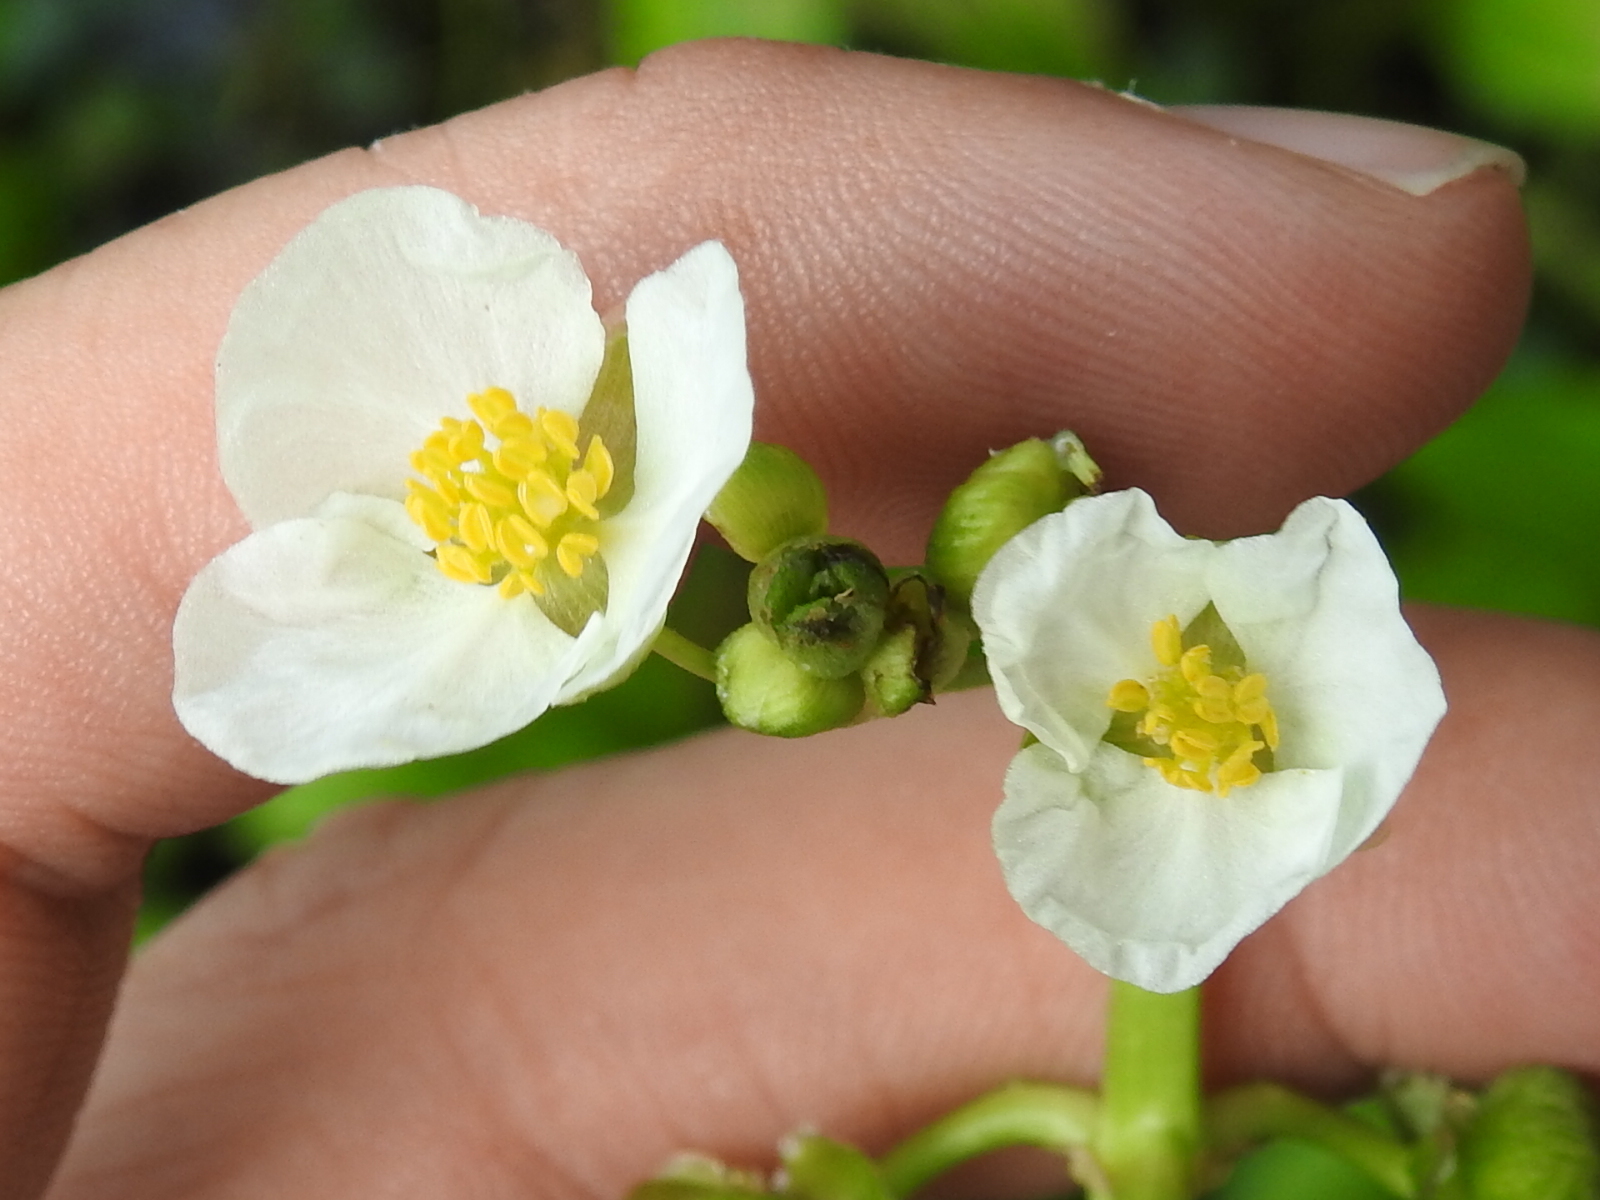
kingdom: Plantae
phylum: Tracheophyta
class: Liliopsida
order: Alismatales
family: Alismataceae
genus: Sagittaria
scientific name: Sagittaria platyphylla
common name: Broad-leaf arrowhead
